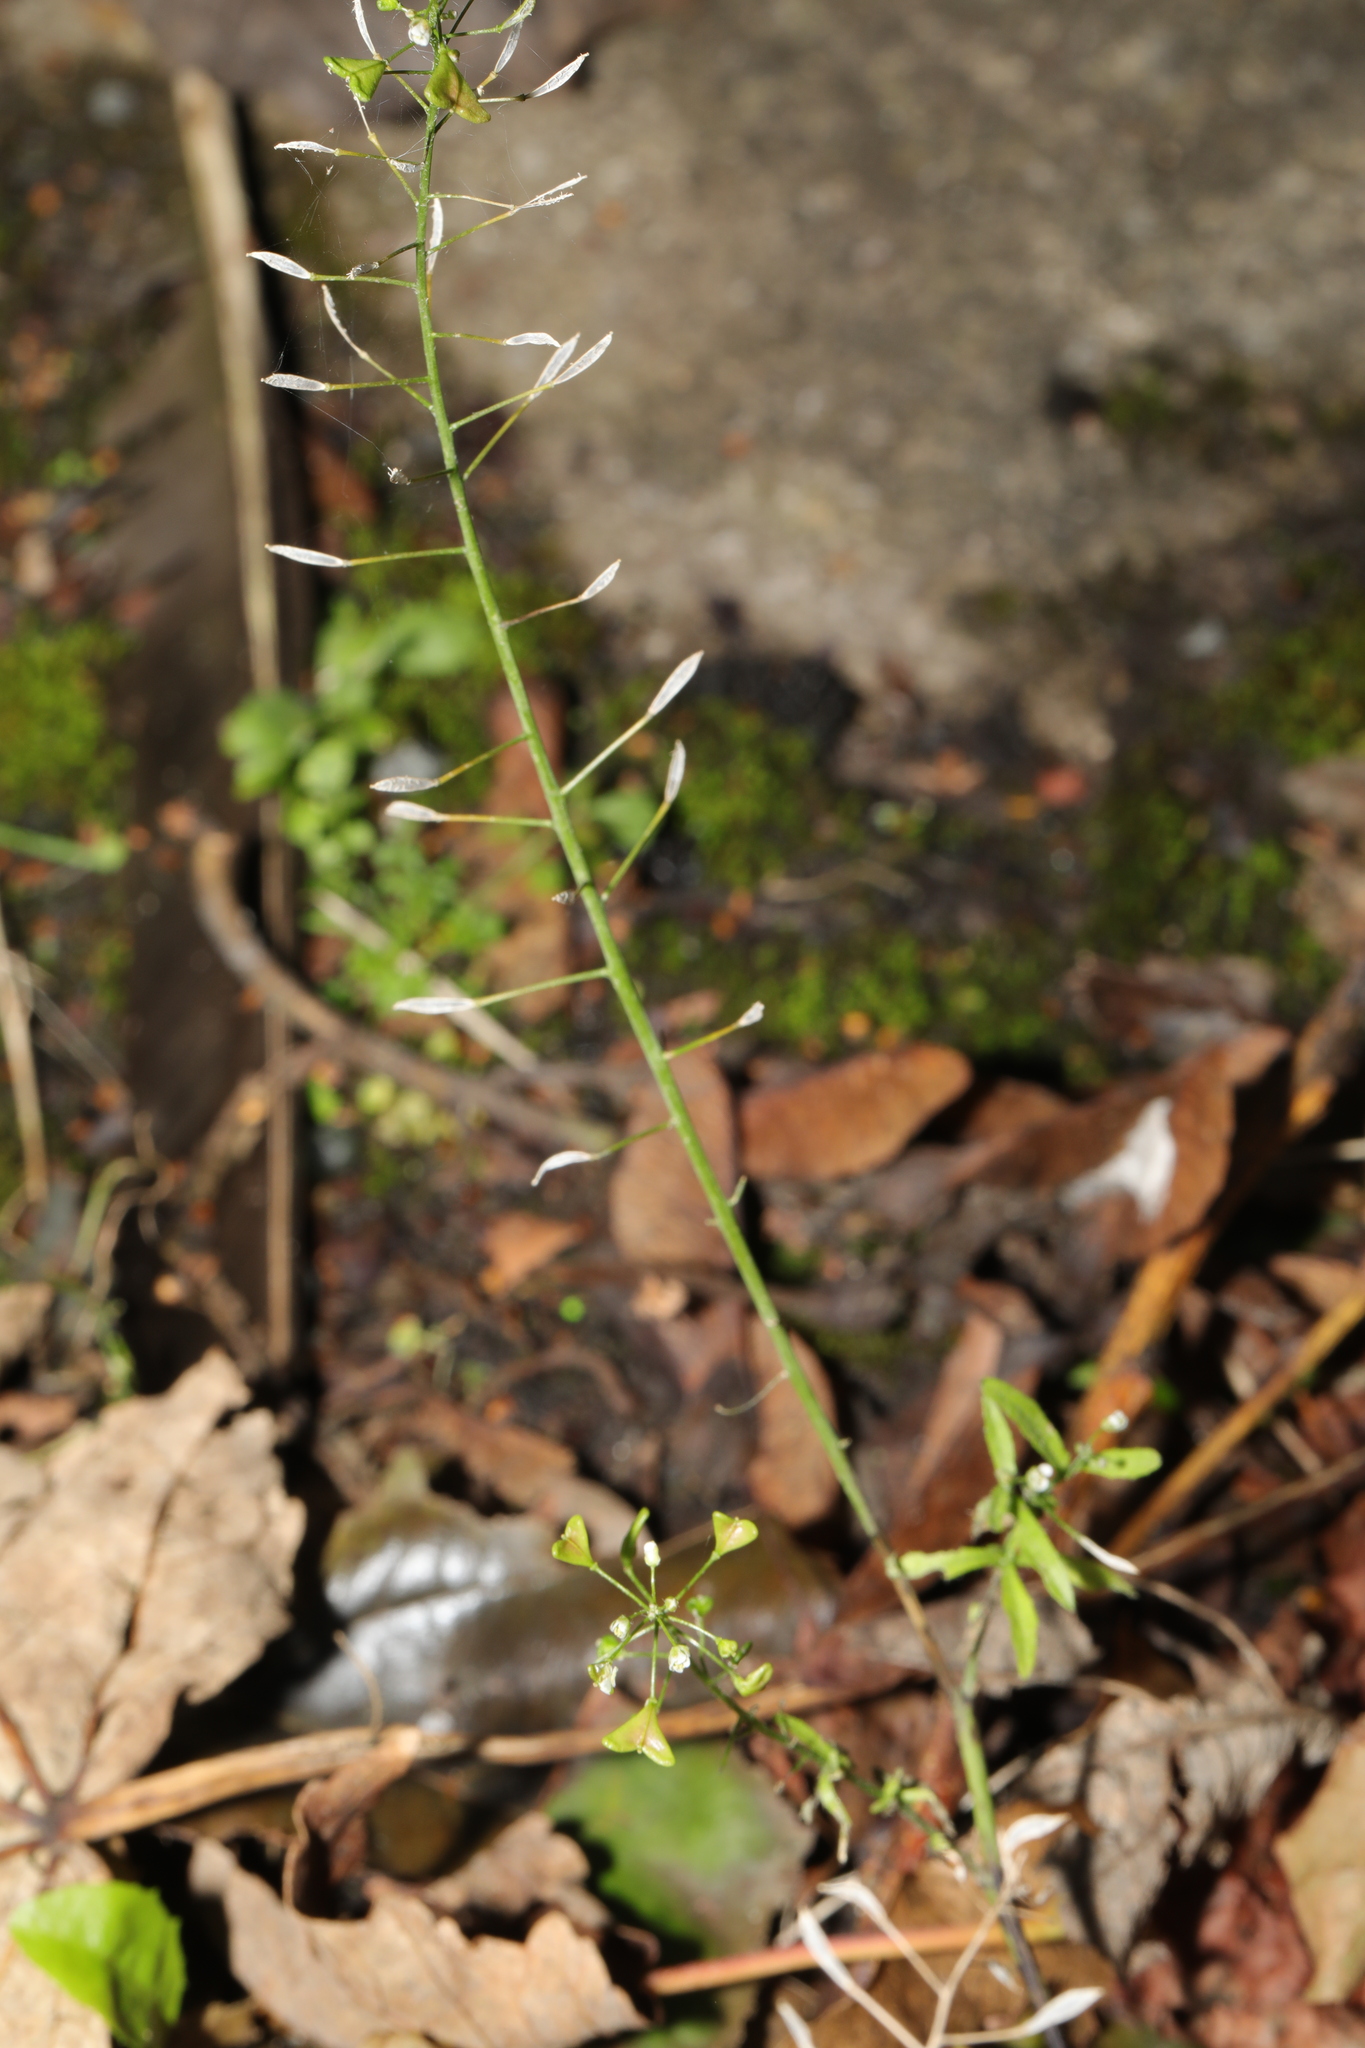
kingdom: Plantae
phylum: Tracheophyta
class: Magnoliopsida
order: Brassicales
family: Brassicaceae
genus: Capsella
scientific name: Capsella bursa-pastoris
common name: Shepherd's purse
